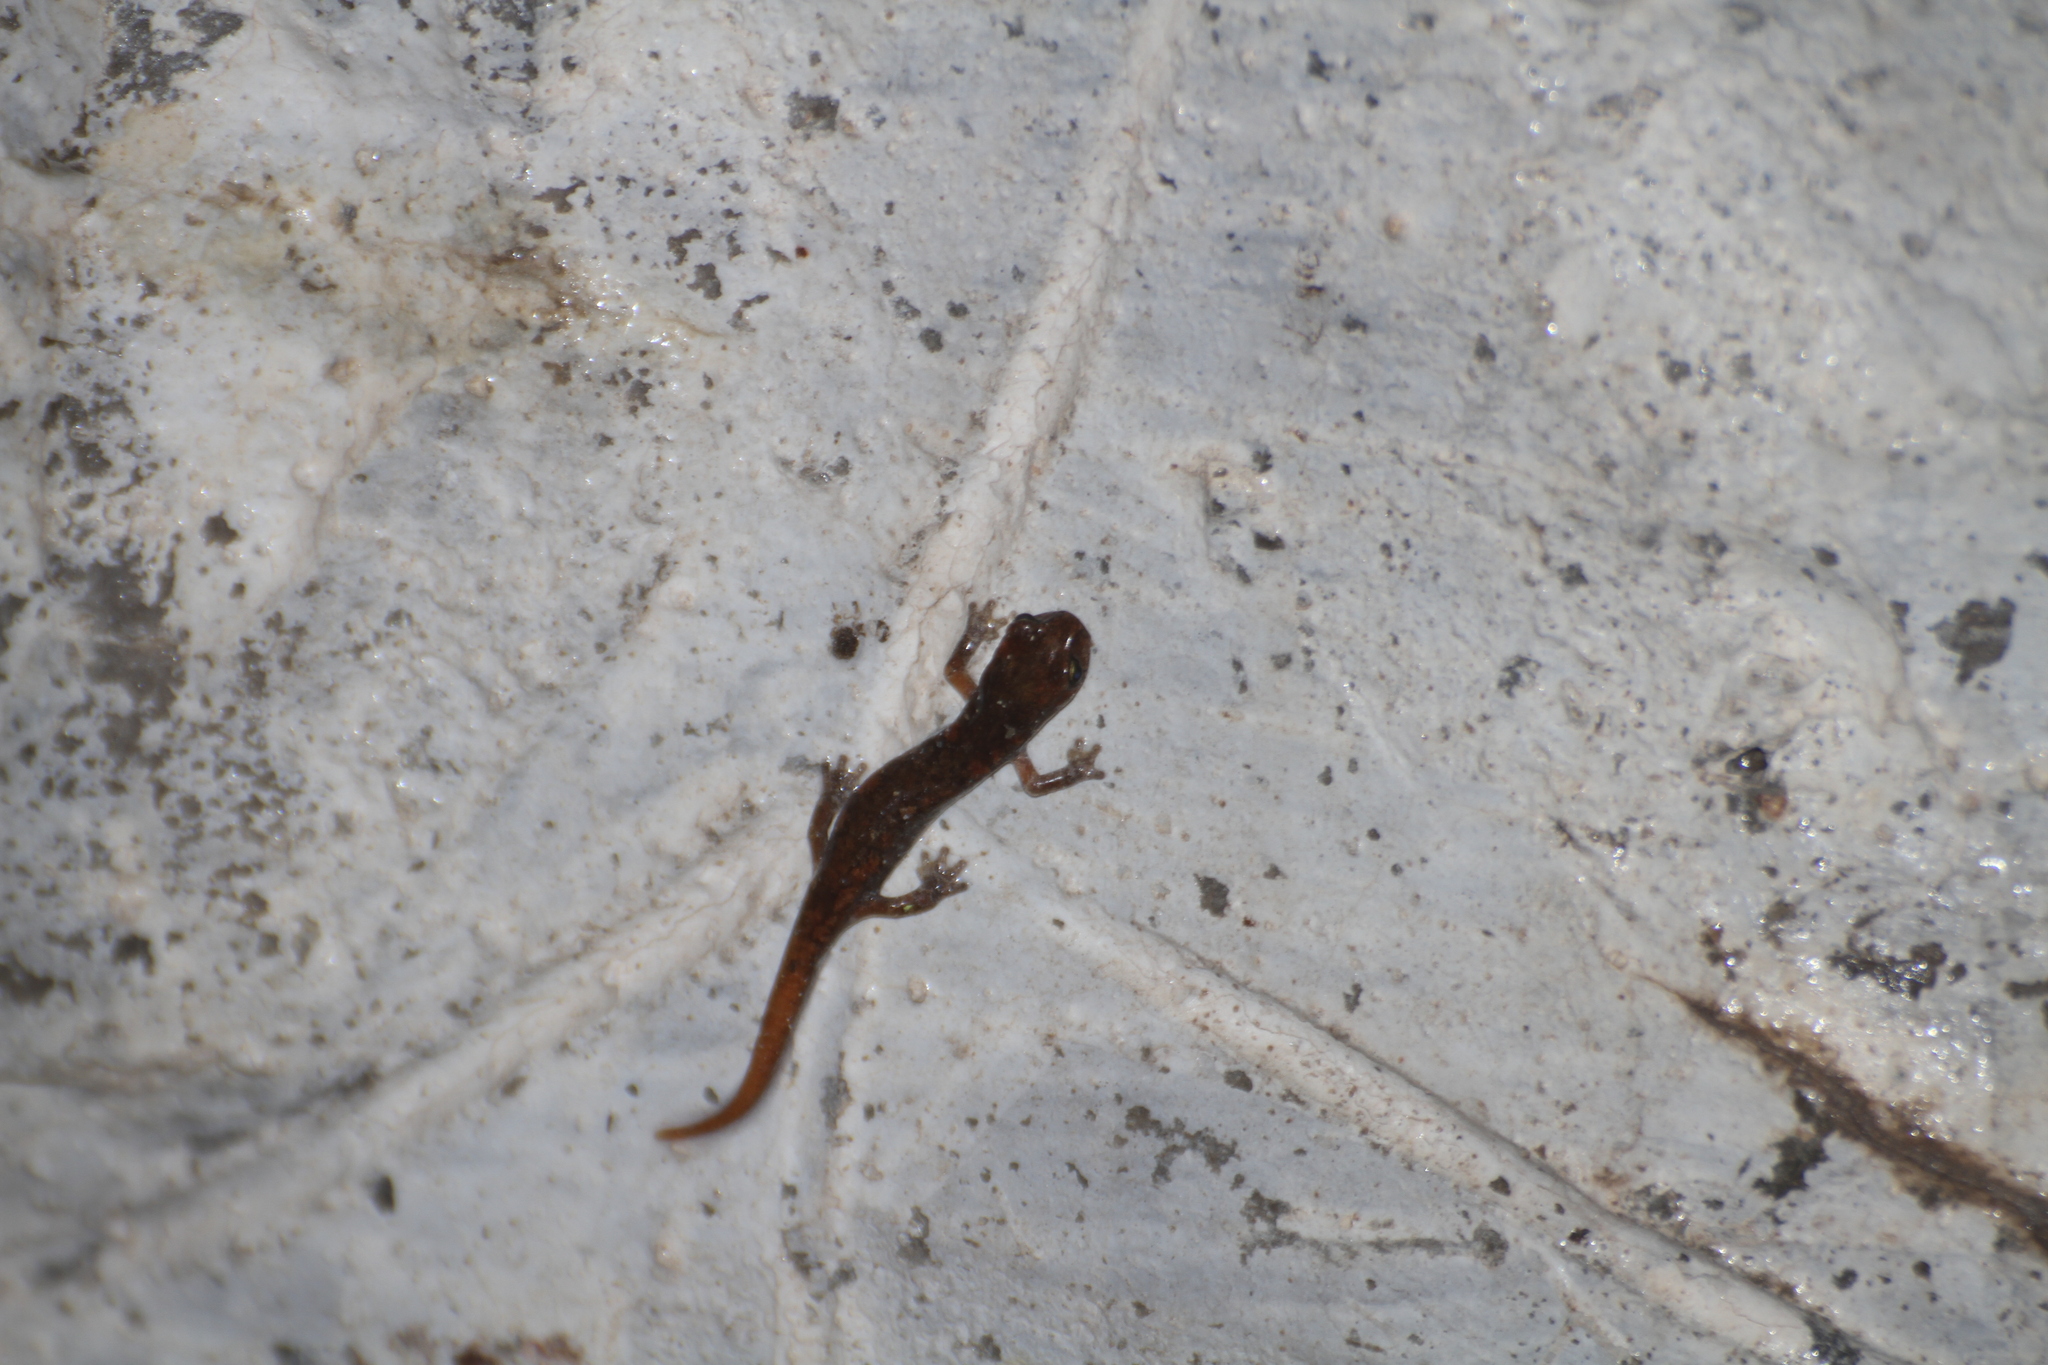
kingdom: Animalia
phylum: Chordata
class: Amphibia
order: Caudata
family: Plethodontidae
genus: Speleomantes
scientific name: Speleomantes strinatii
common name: French cave salamander
